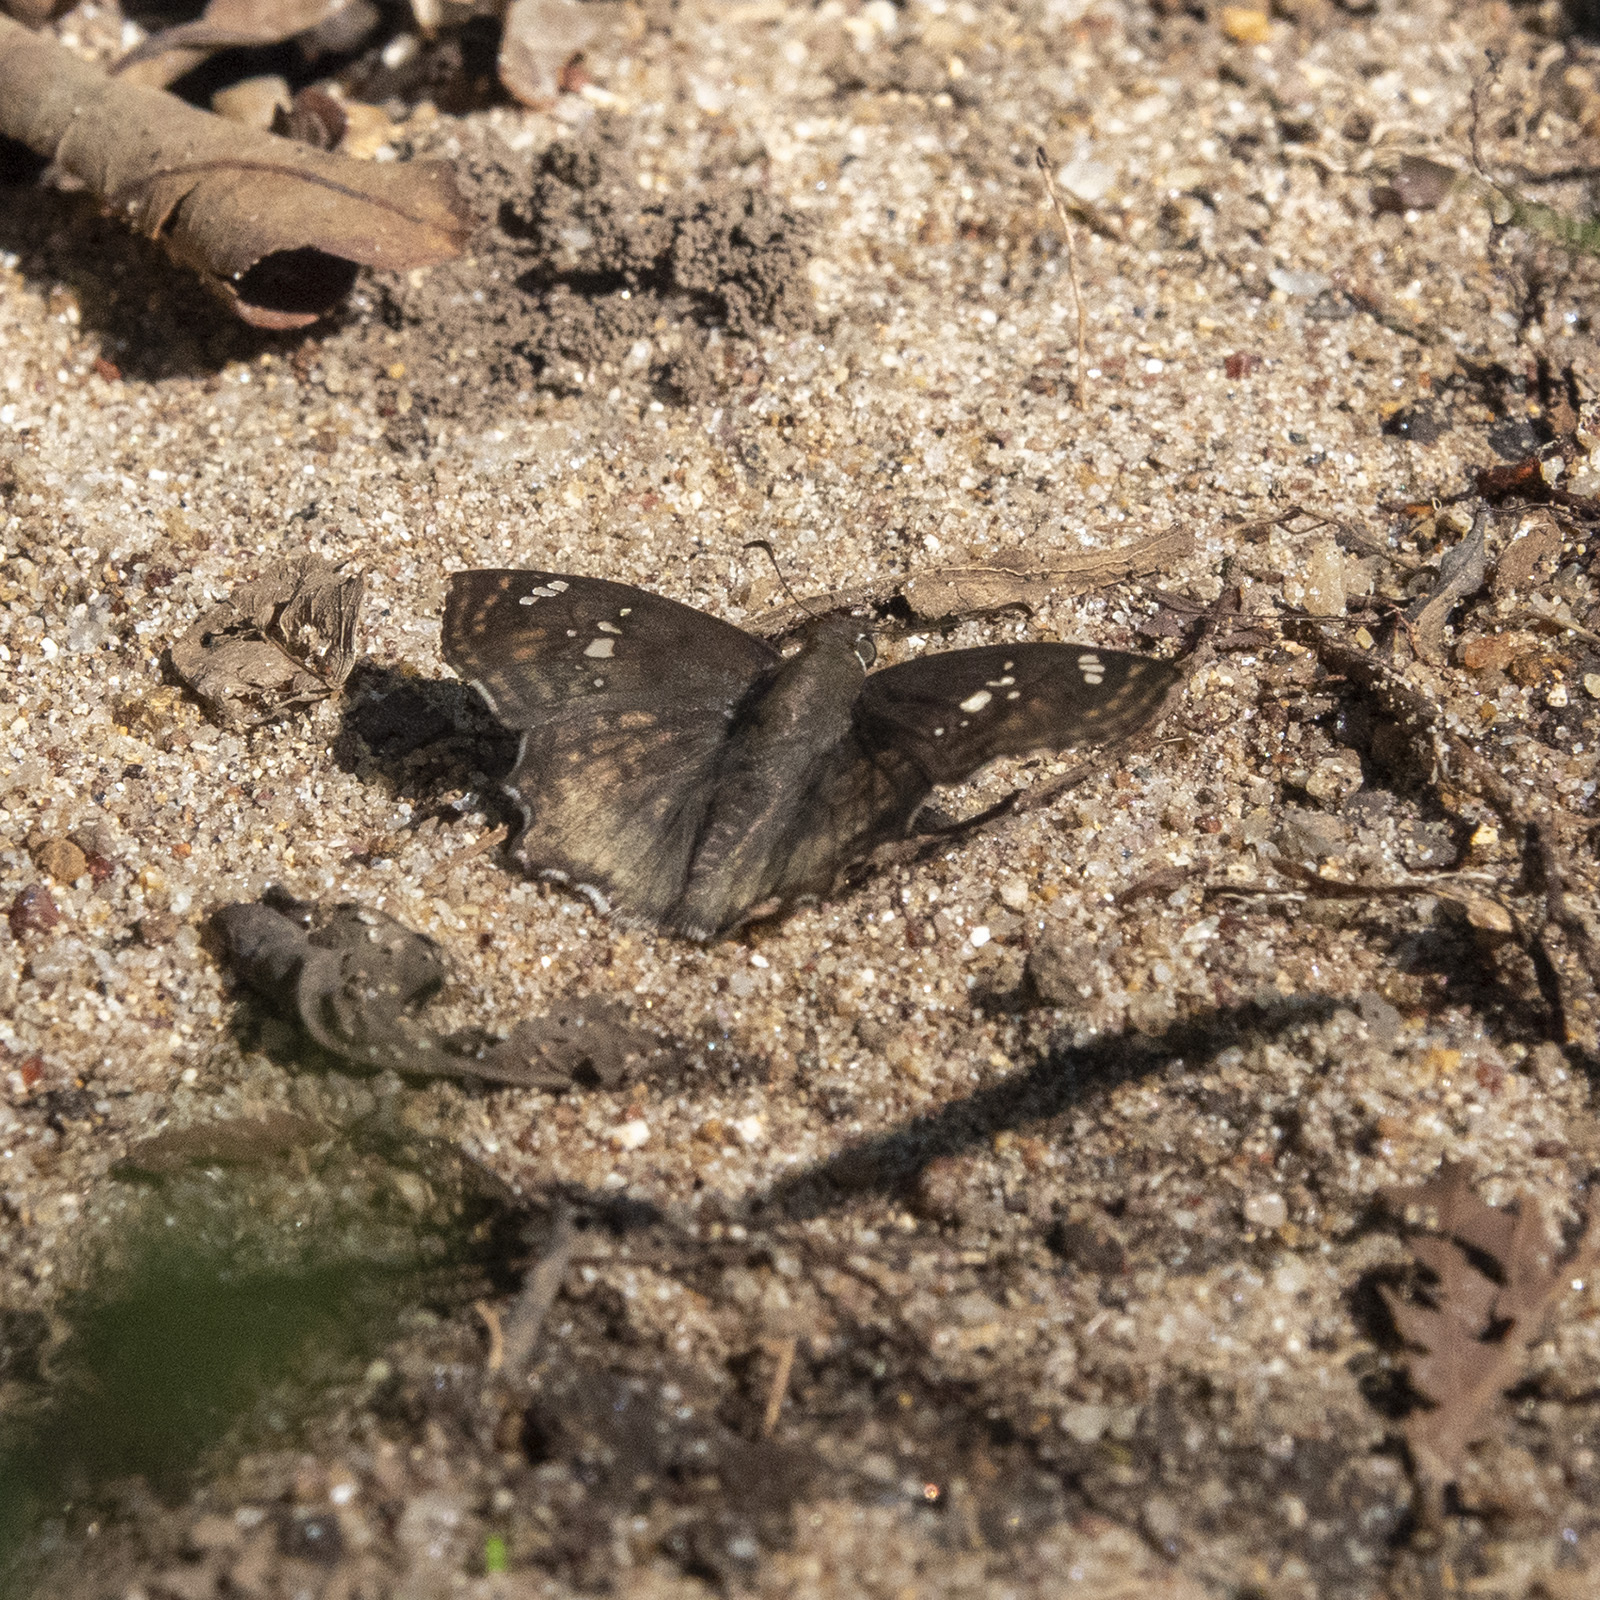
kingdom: Animalia
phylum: Arthropoda
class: Insecta
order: Lepidoptera
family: Hesperiidae
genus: Caprona
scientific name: Caprona ransonnettii
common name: Golden angle
